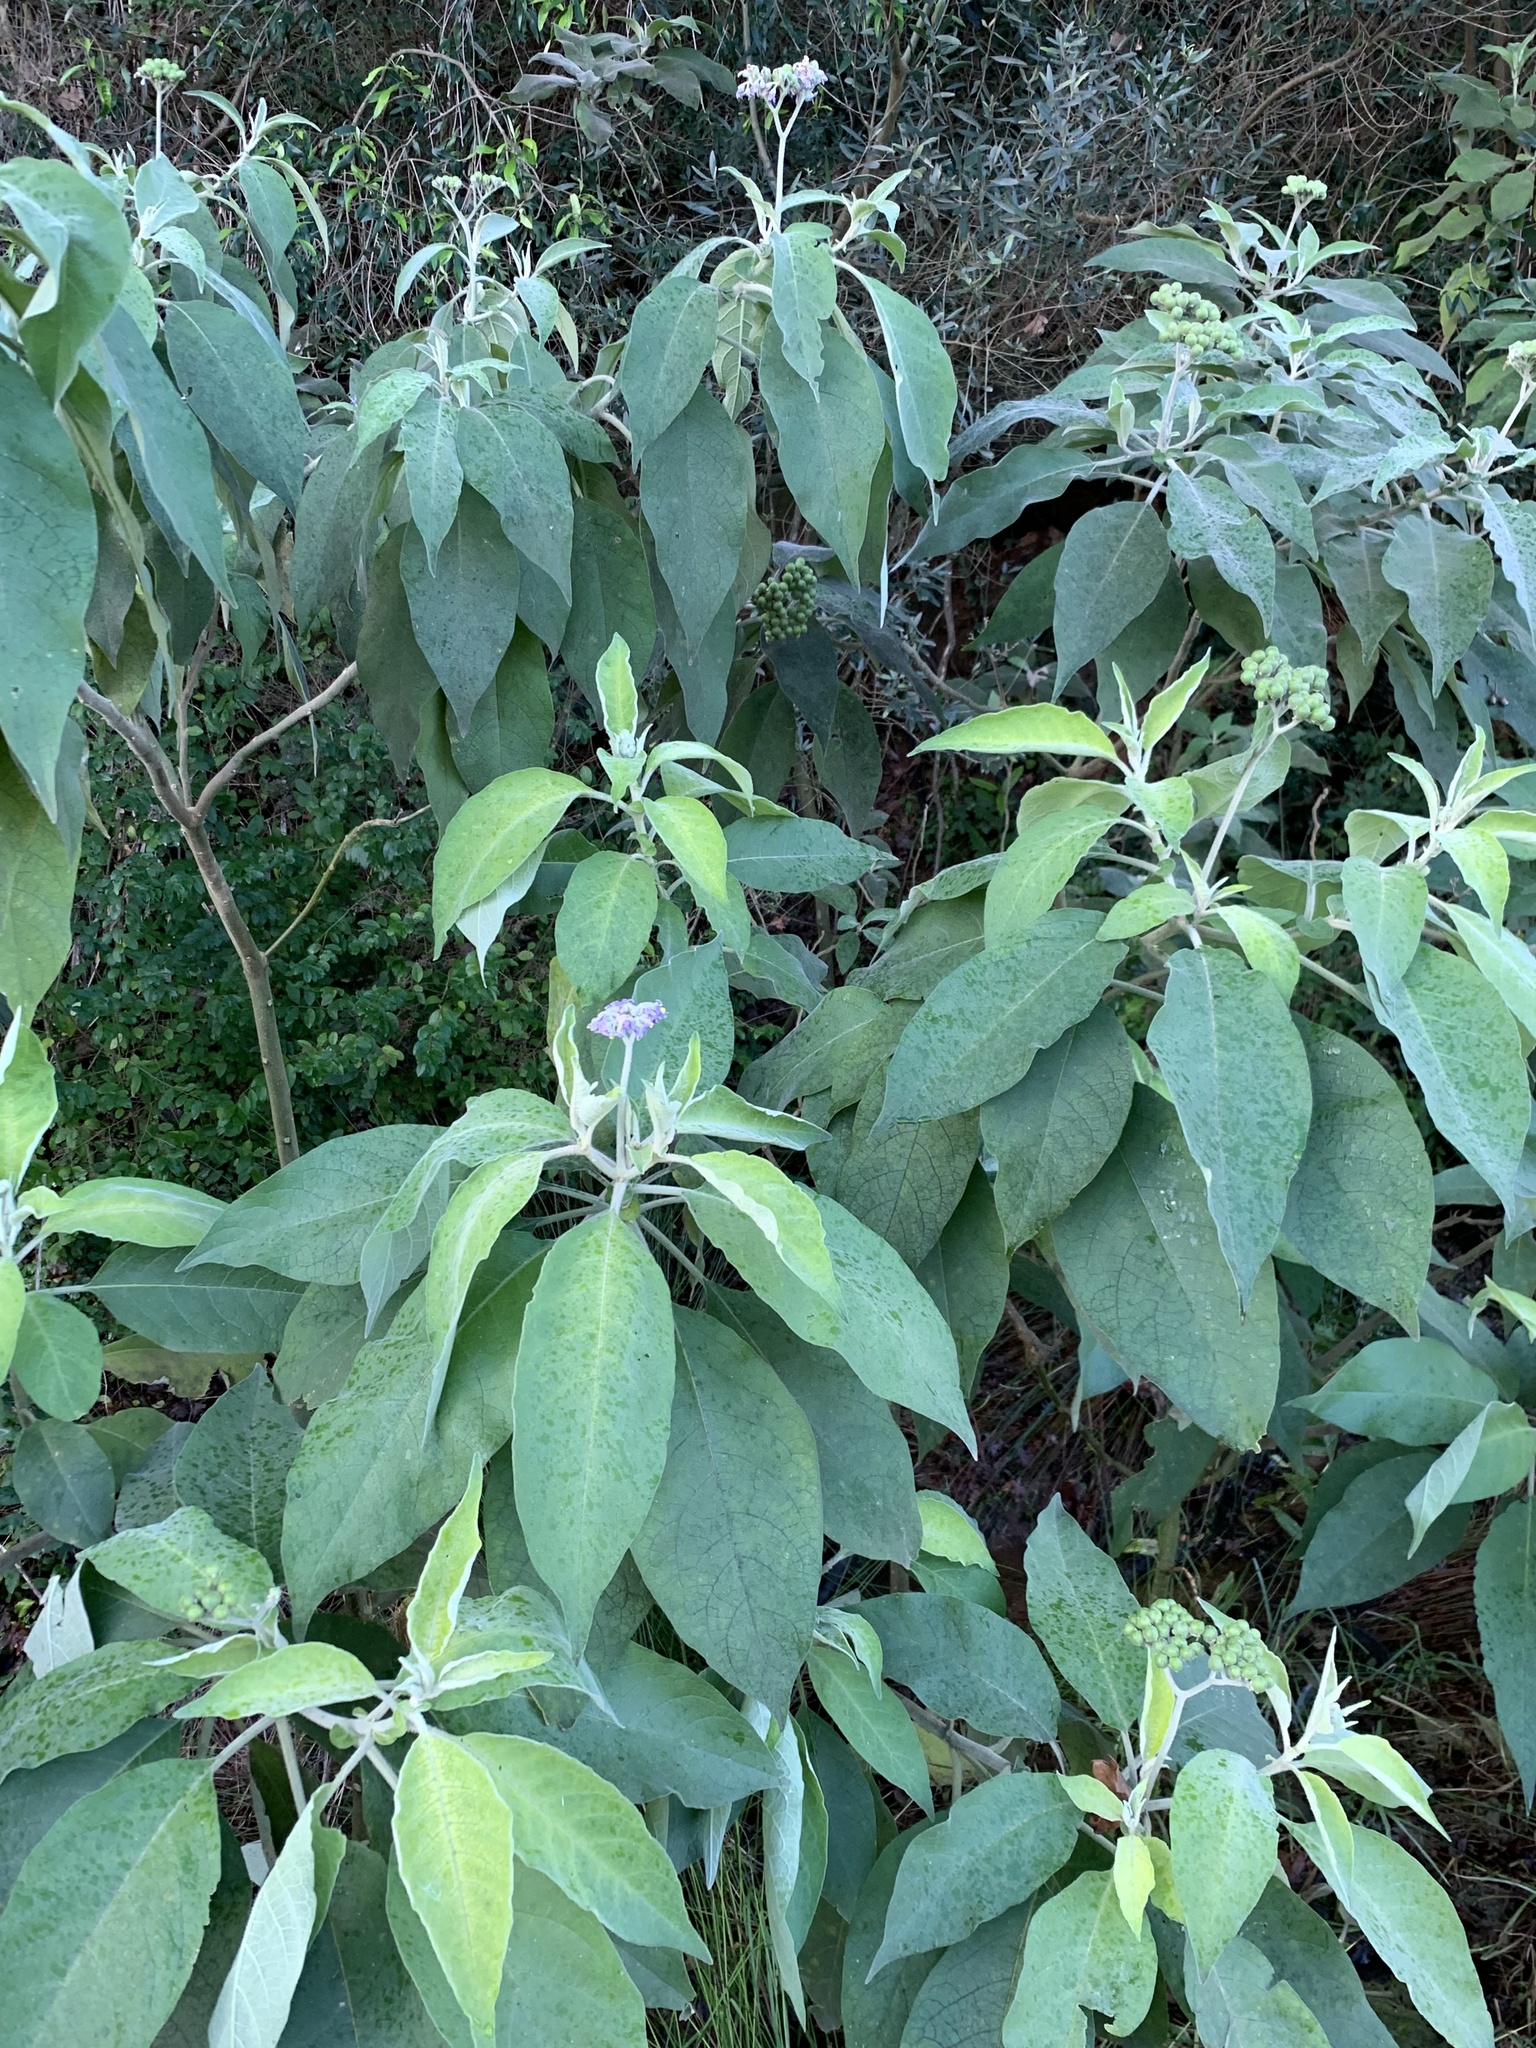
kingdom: Plantae
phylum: Tracheophyta
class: Magnoliopsida
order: Solanales
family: Solanaceae
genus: Solanum
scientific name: Solanum mauritianum
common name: Earleaf nightshade
